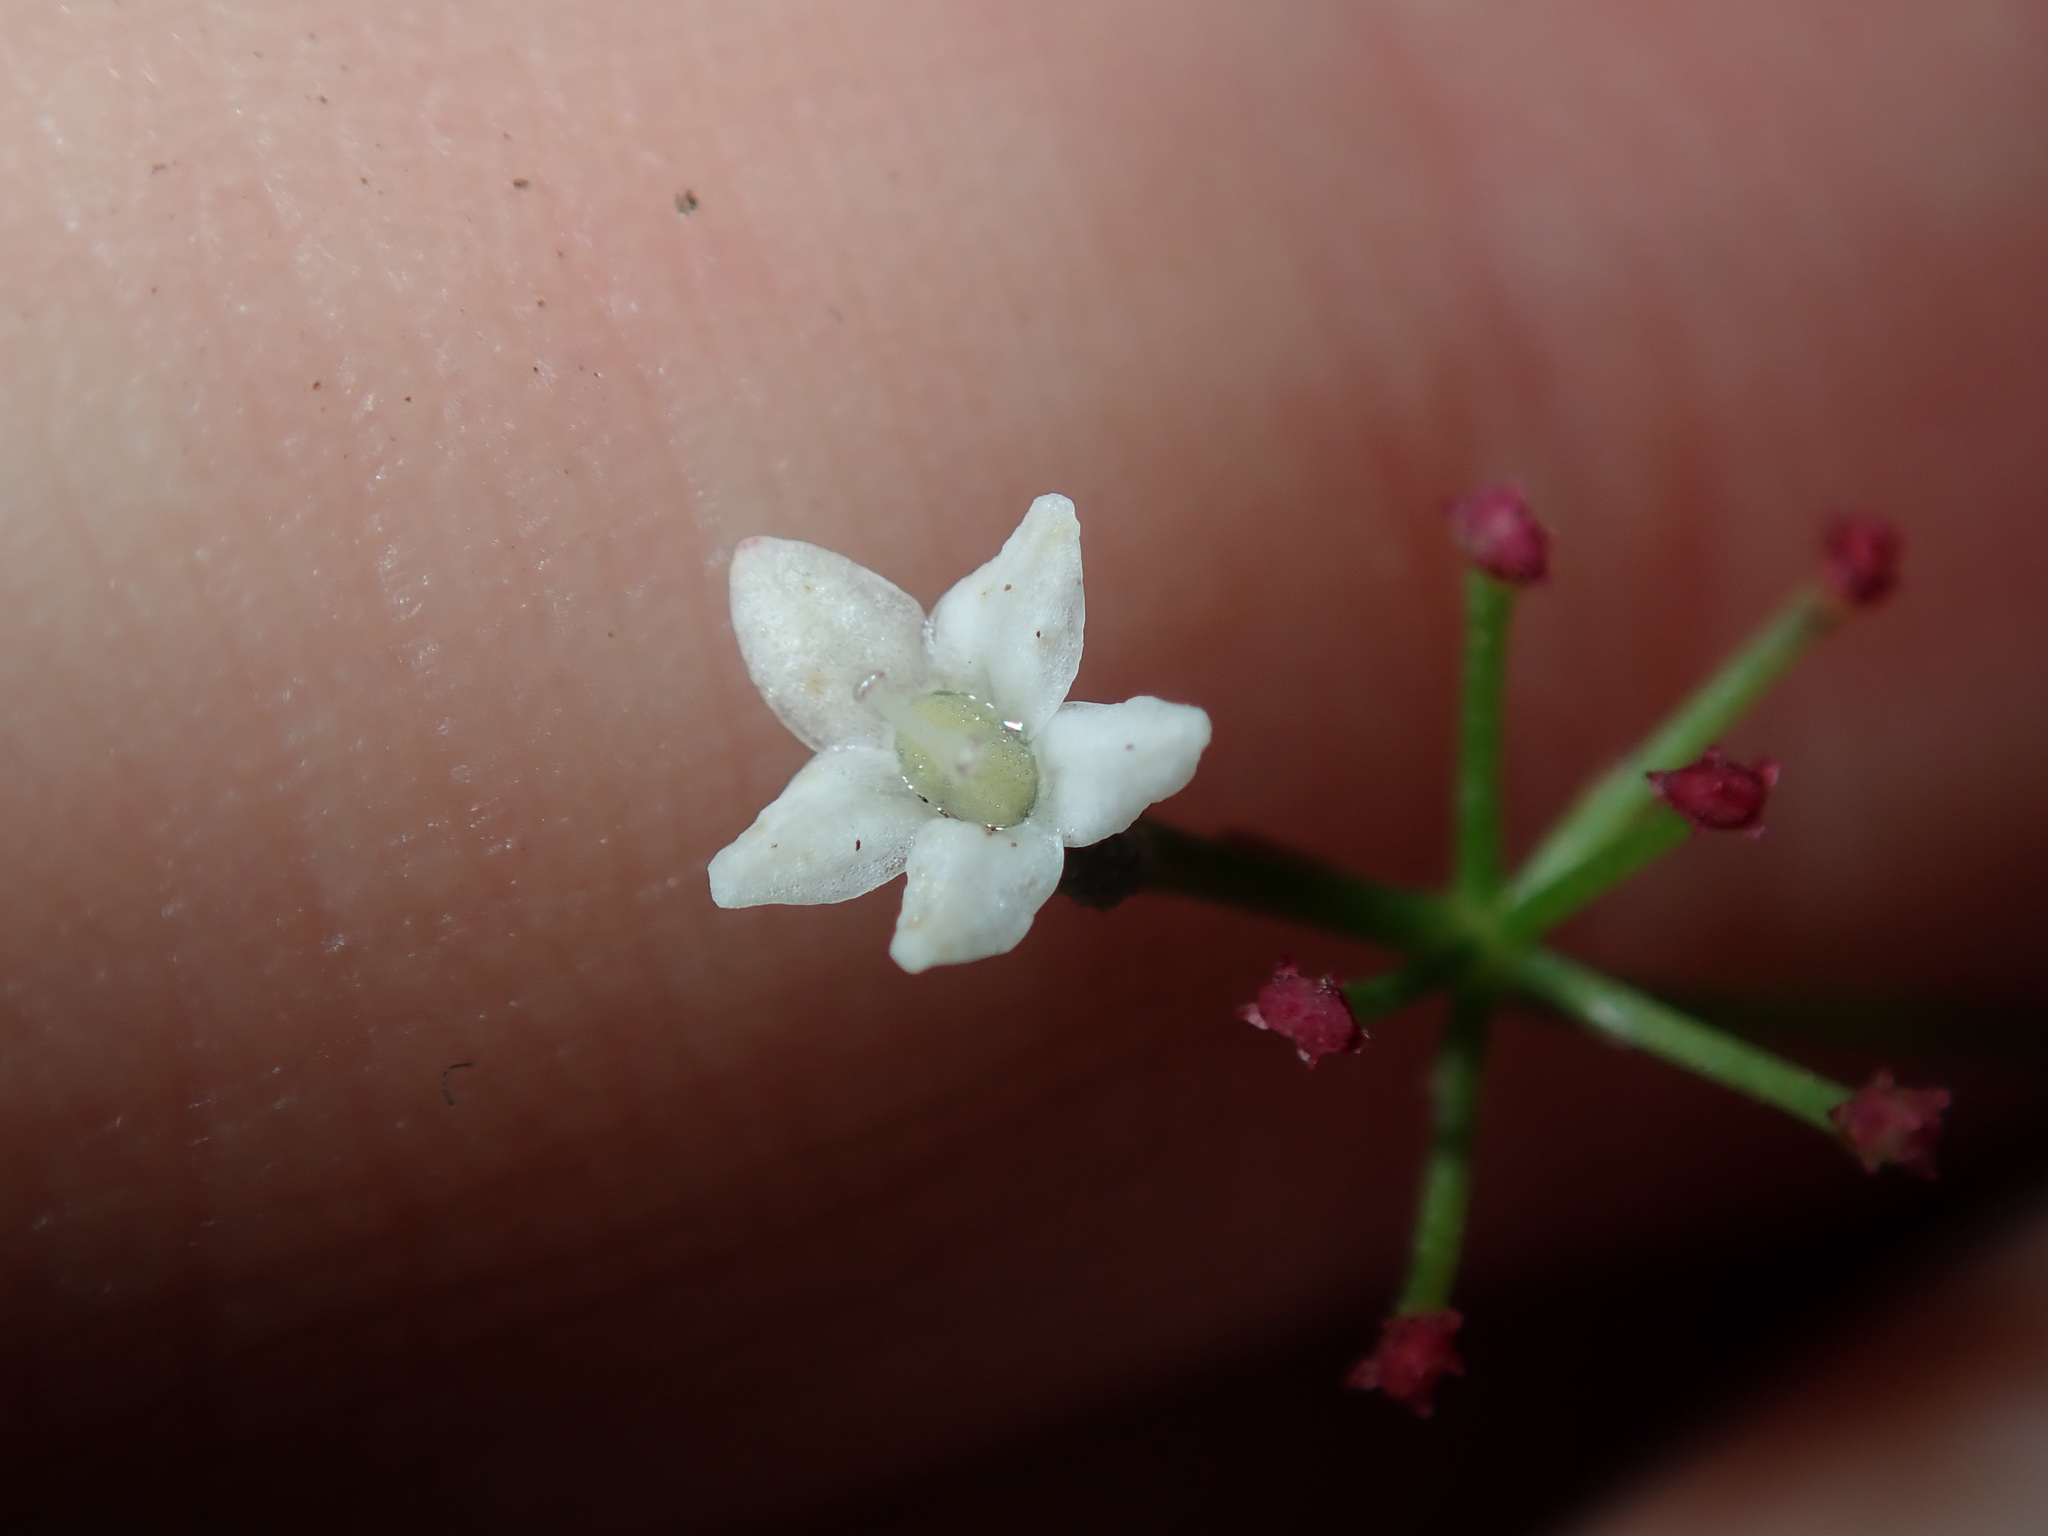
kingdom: Plantae
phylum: Tracheophyta
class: Magnoliopsida
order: Apiales
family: Apiaceae
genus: Platysace
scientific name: Platysace linearifolia
